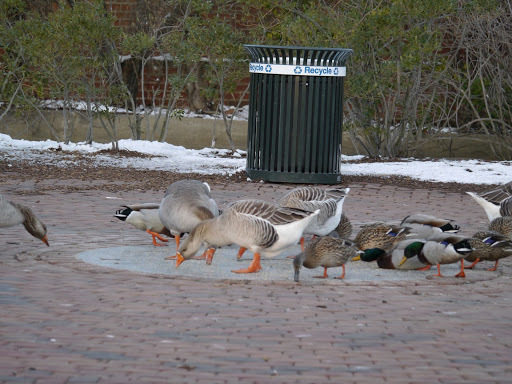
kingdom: Animalia
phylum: Chordata
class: Aves
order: Anseriformes
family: Anatidae
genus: Anser
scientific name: Anser anser
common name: Greylag goose
